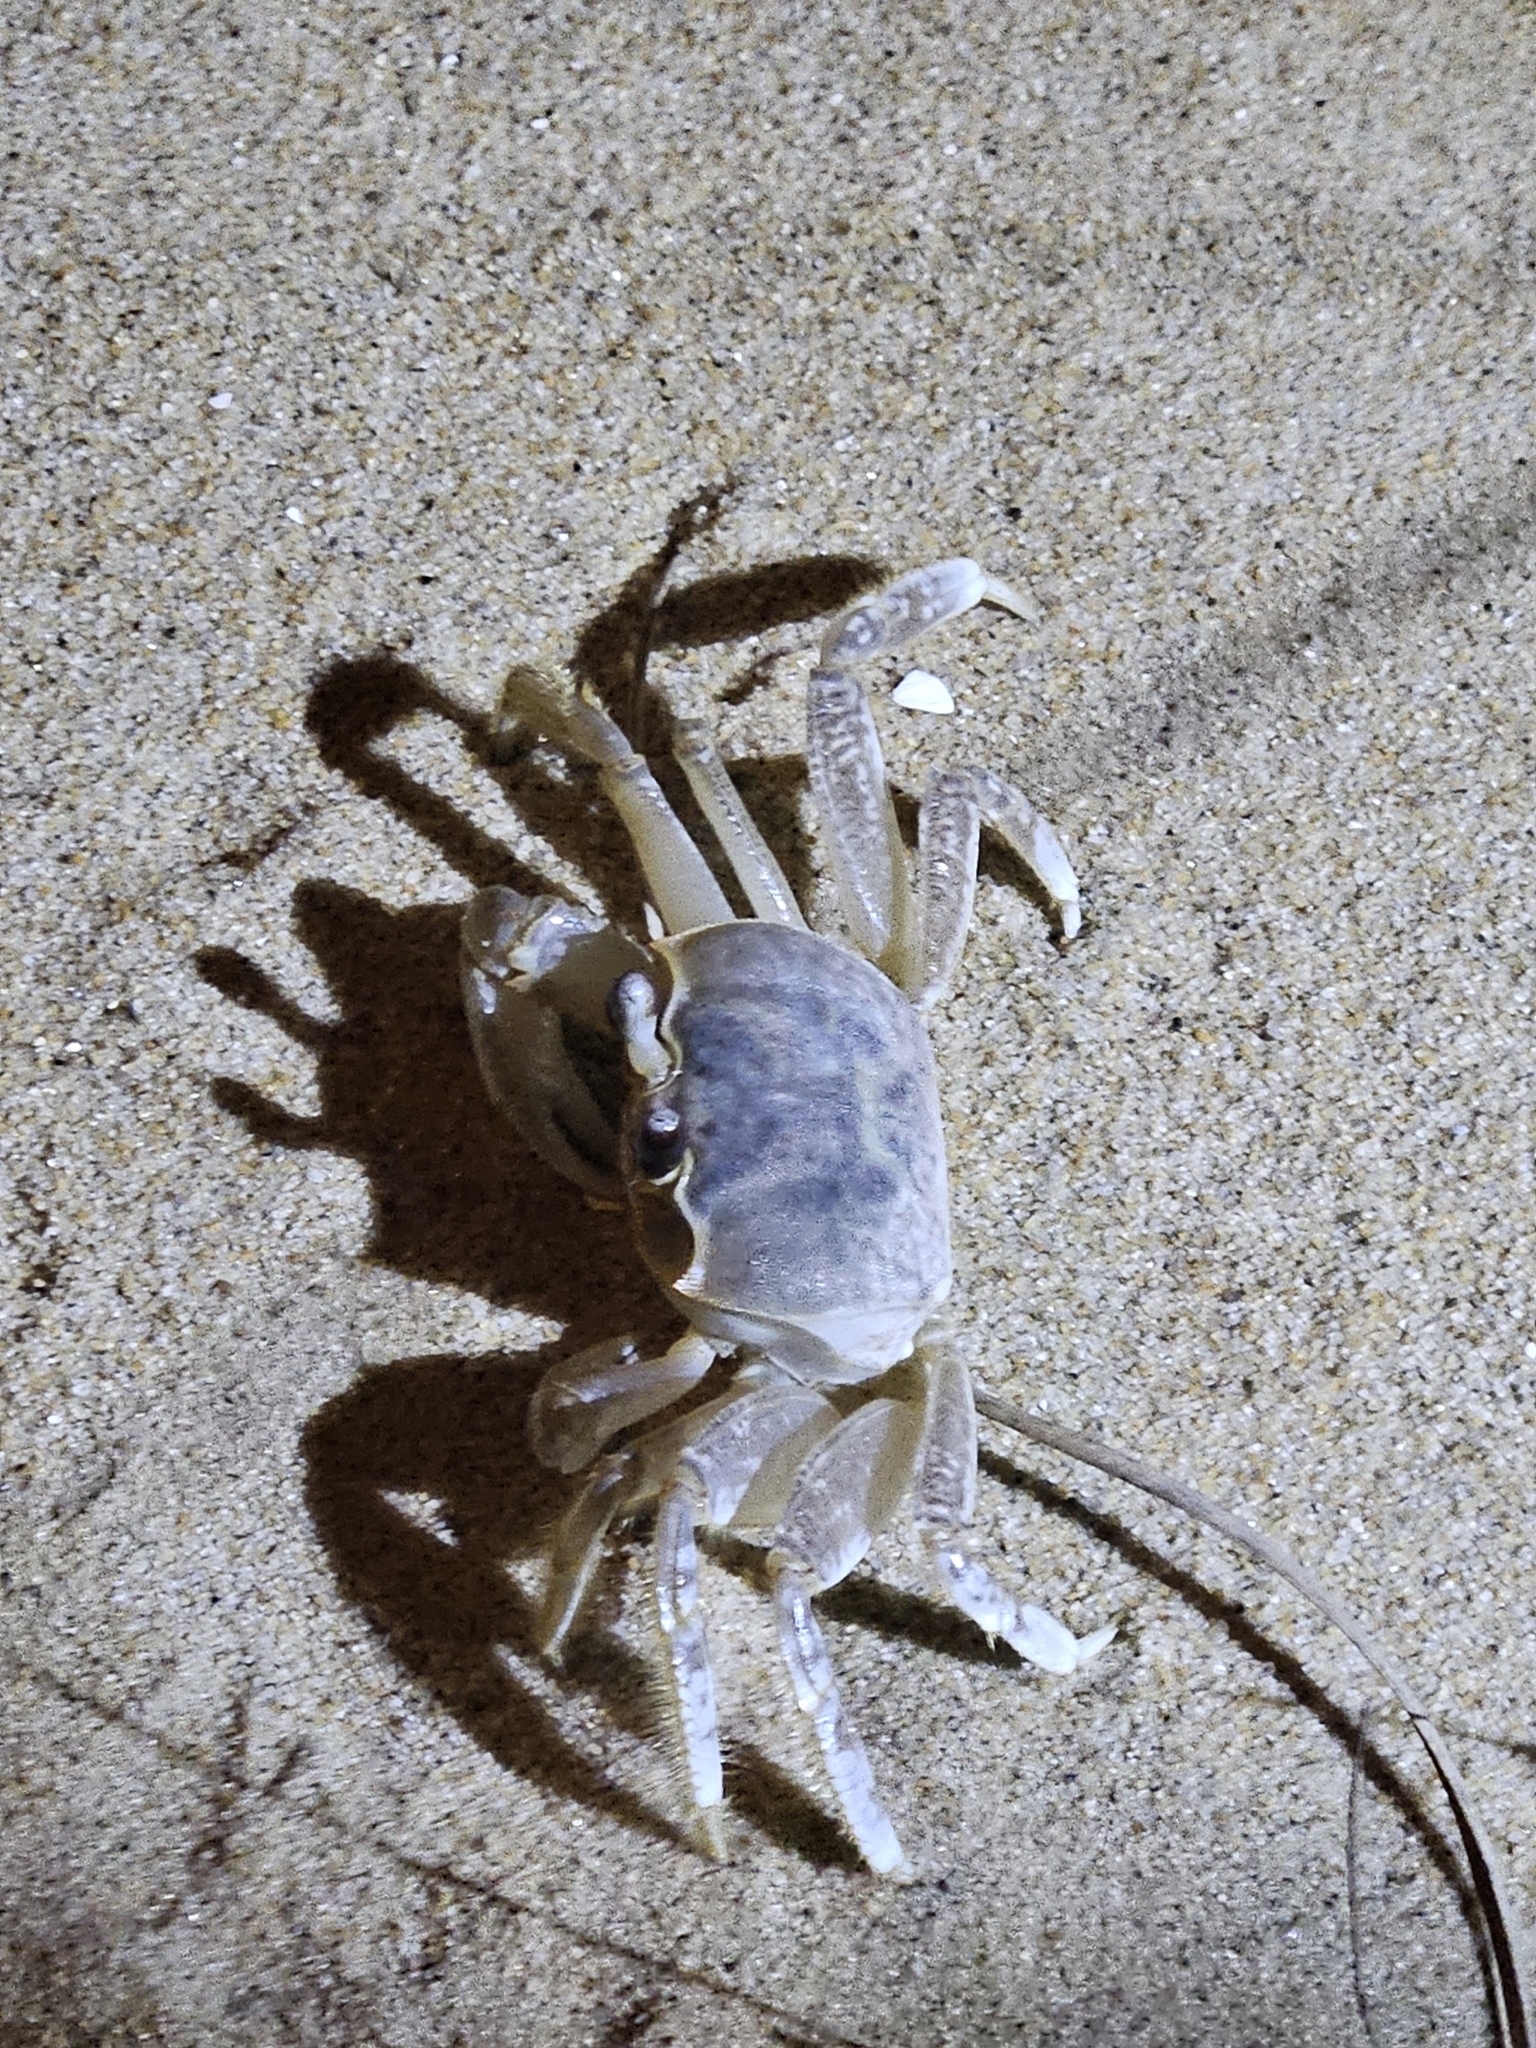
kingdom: Animalia
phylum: Arthropoda
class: Malacostraca
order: Decapoda
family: Ocypodidae
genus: Ocypode
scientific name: Ocypode quadrata
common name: Ghost crab
